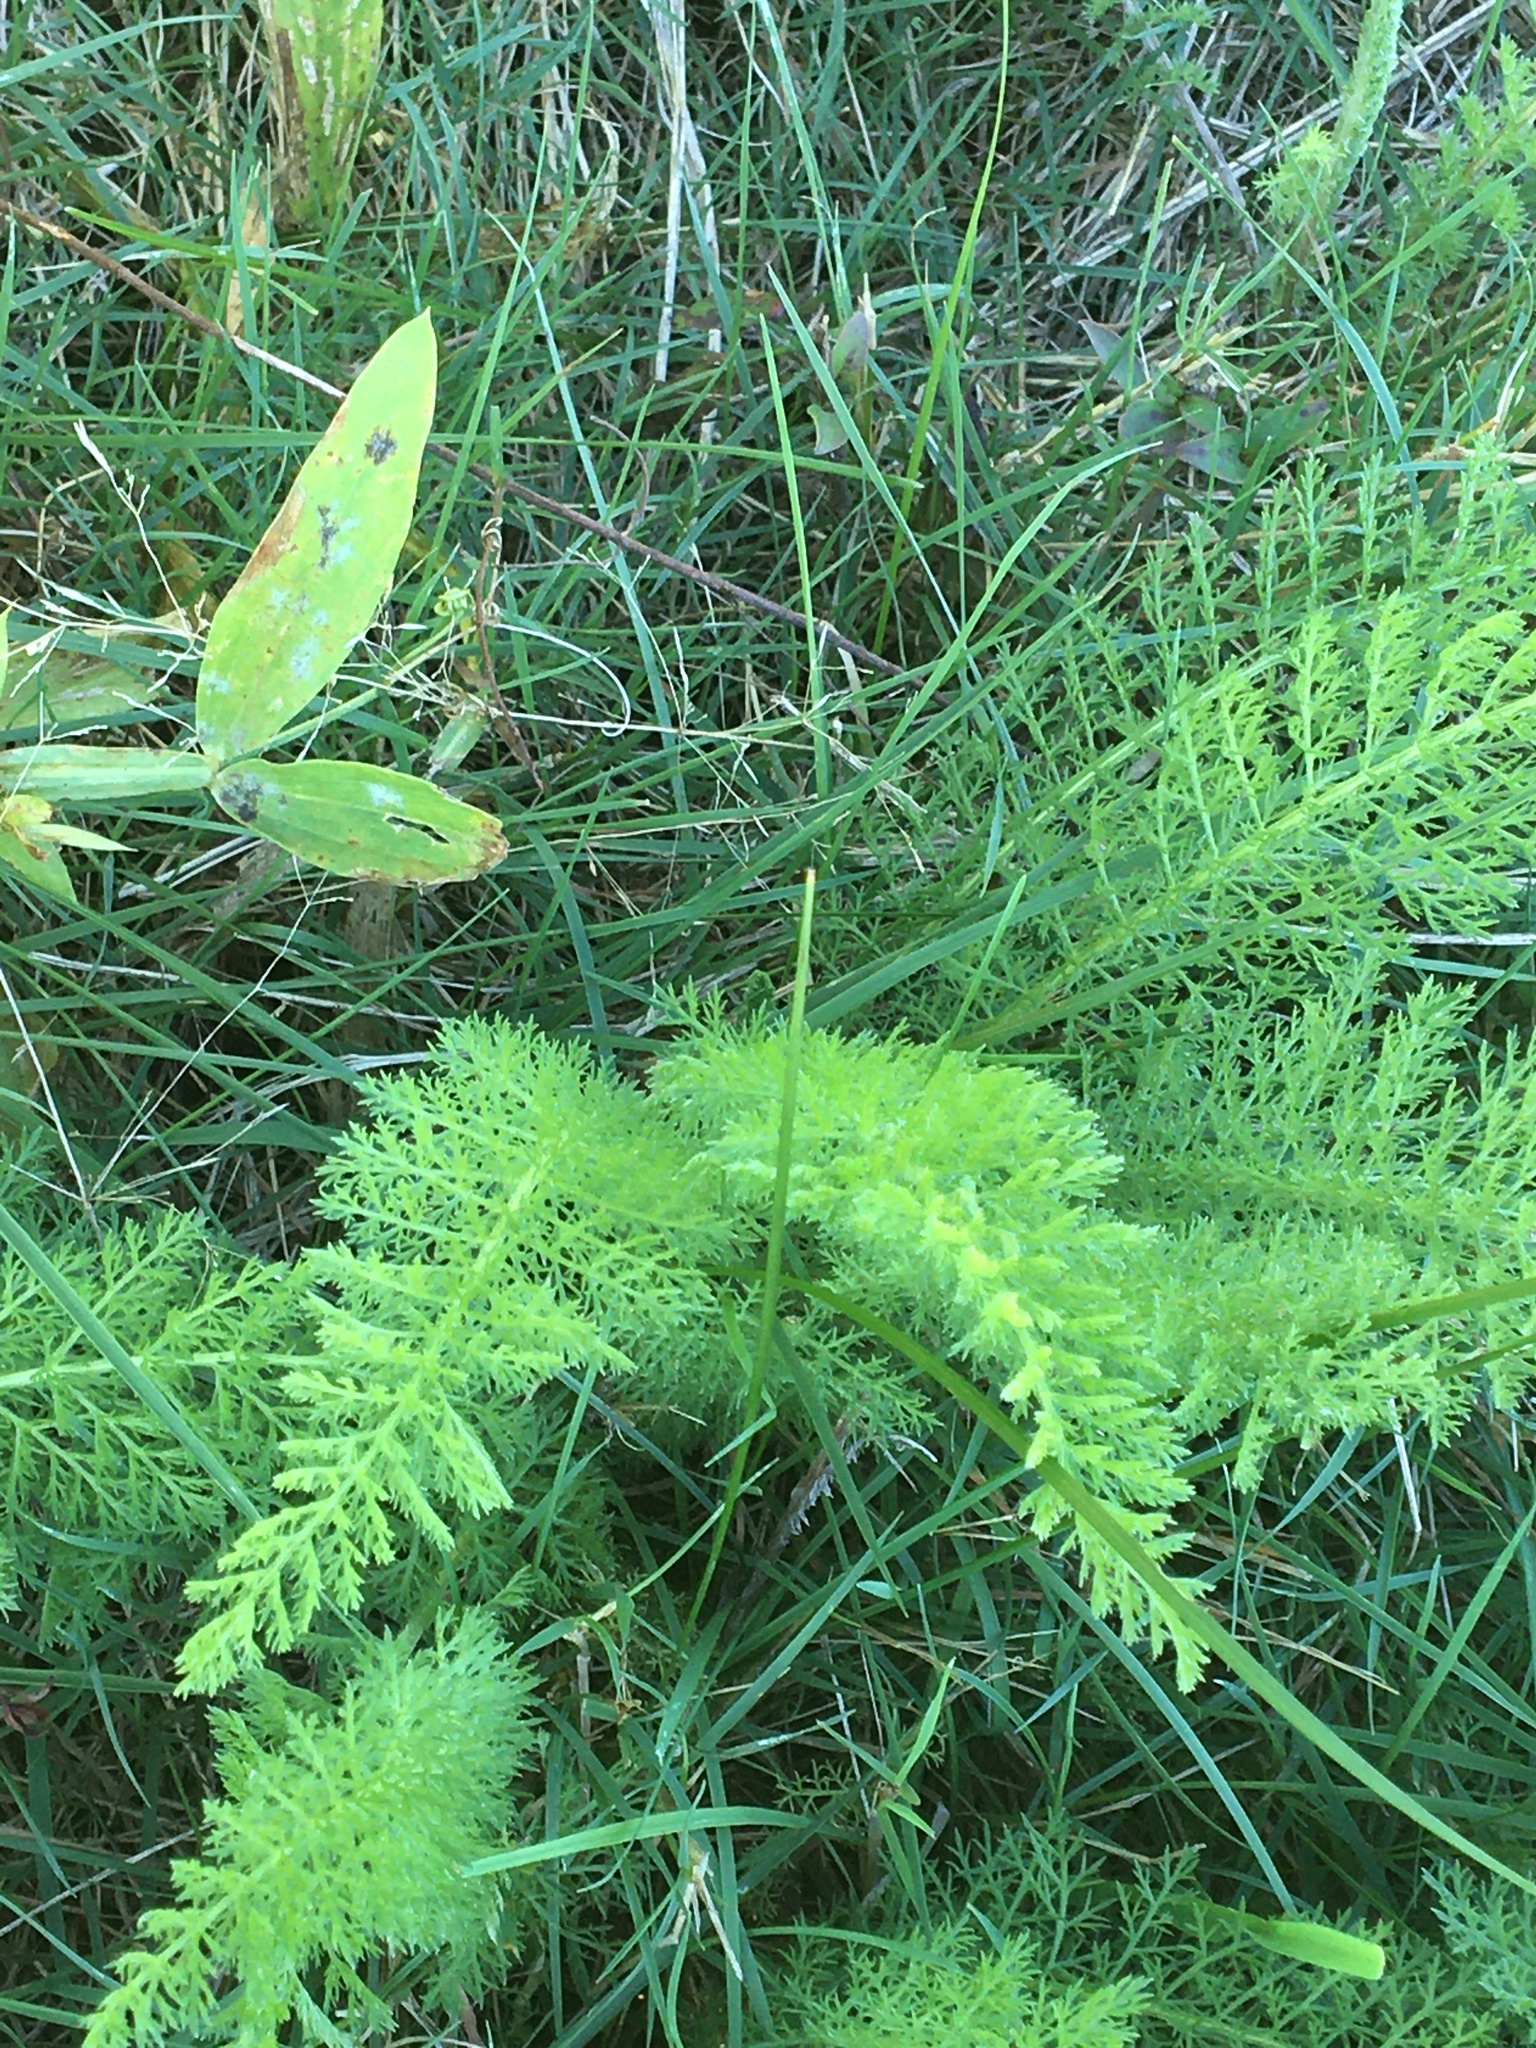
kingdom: Plantae
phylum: Tracheophyta
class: Magnoliopsida
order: Asterales
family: Asteraceae
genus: Achillea
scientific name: Achillea millefolium
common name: Yarrow
